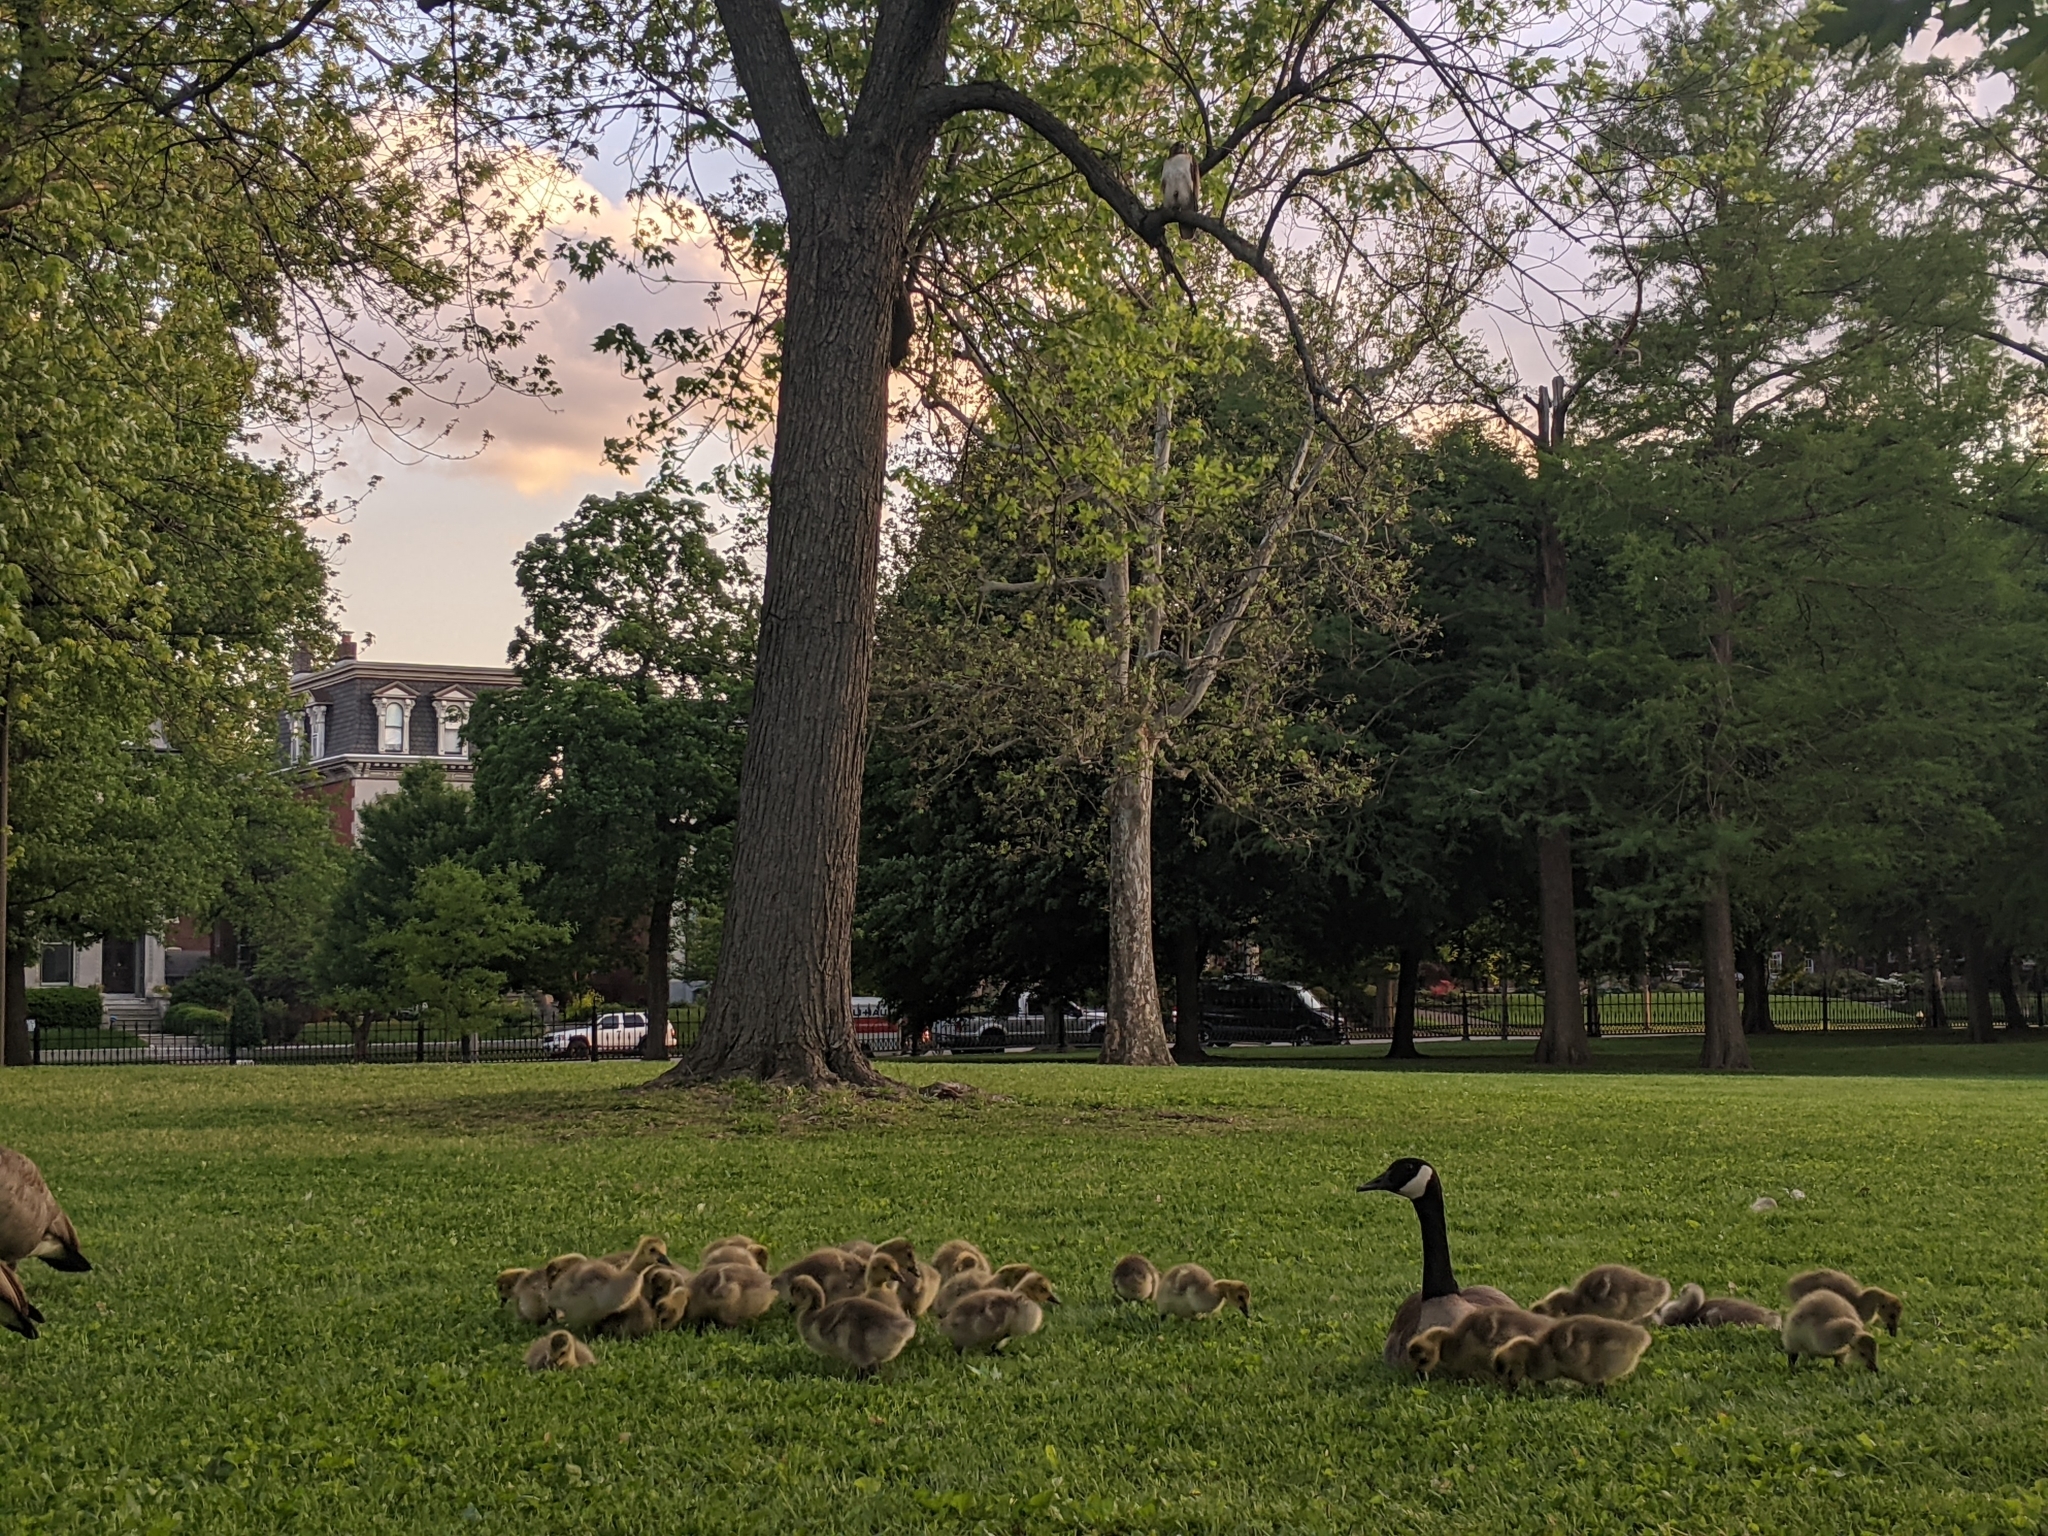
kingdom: Animalia
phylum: Chordata
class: Aves
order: Accipitriformes
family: Accipitridae
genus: Buteo
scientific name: Buteo jamaicensis
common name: Red-tailed hawk
